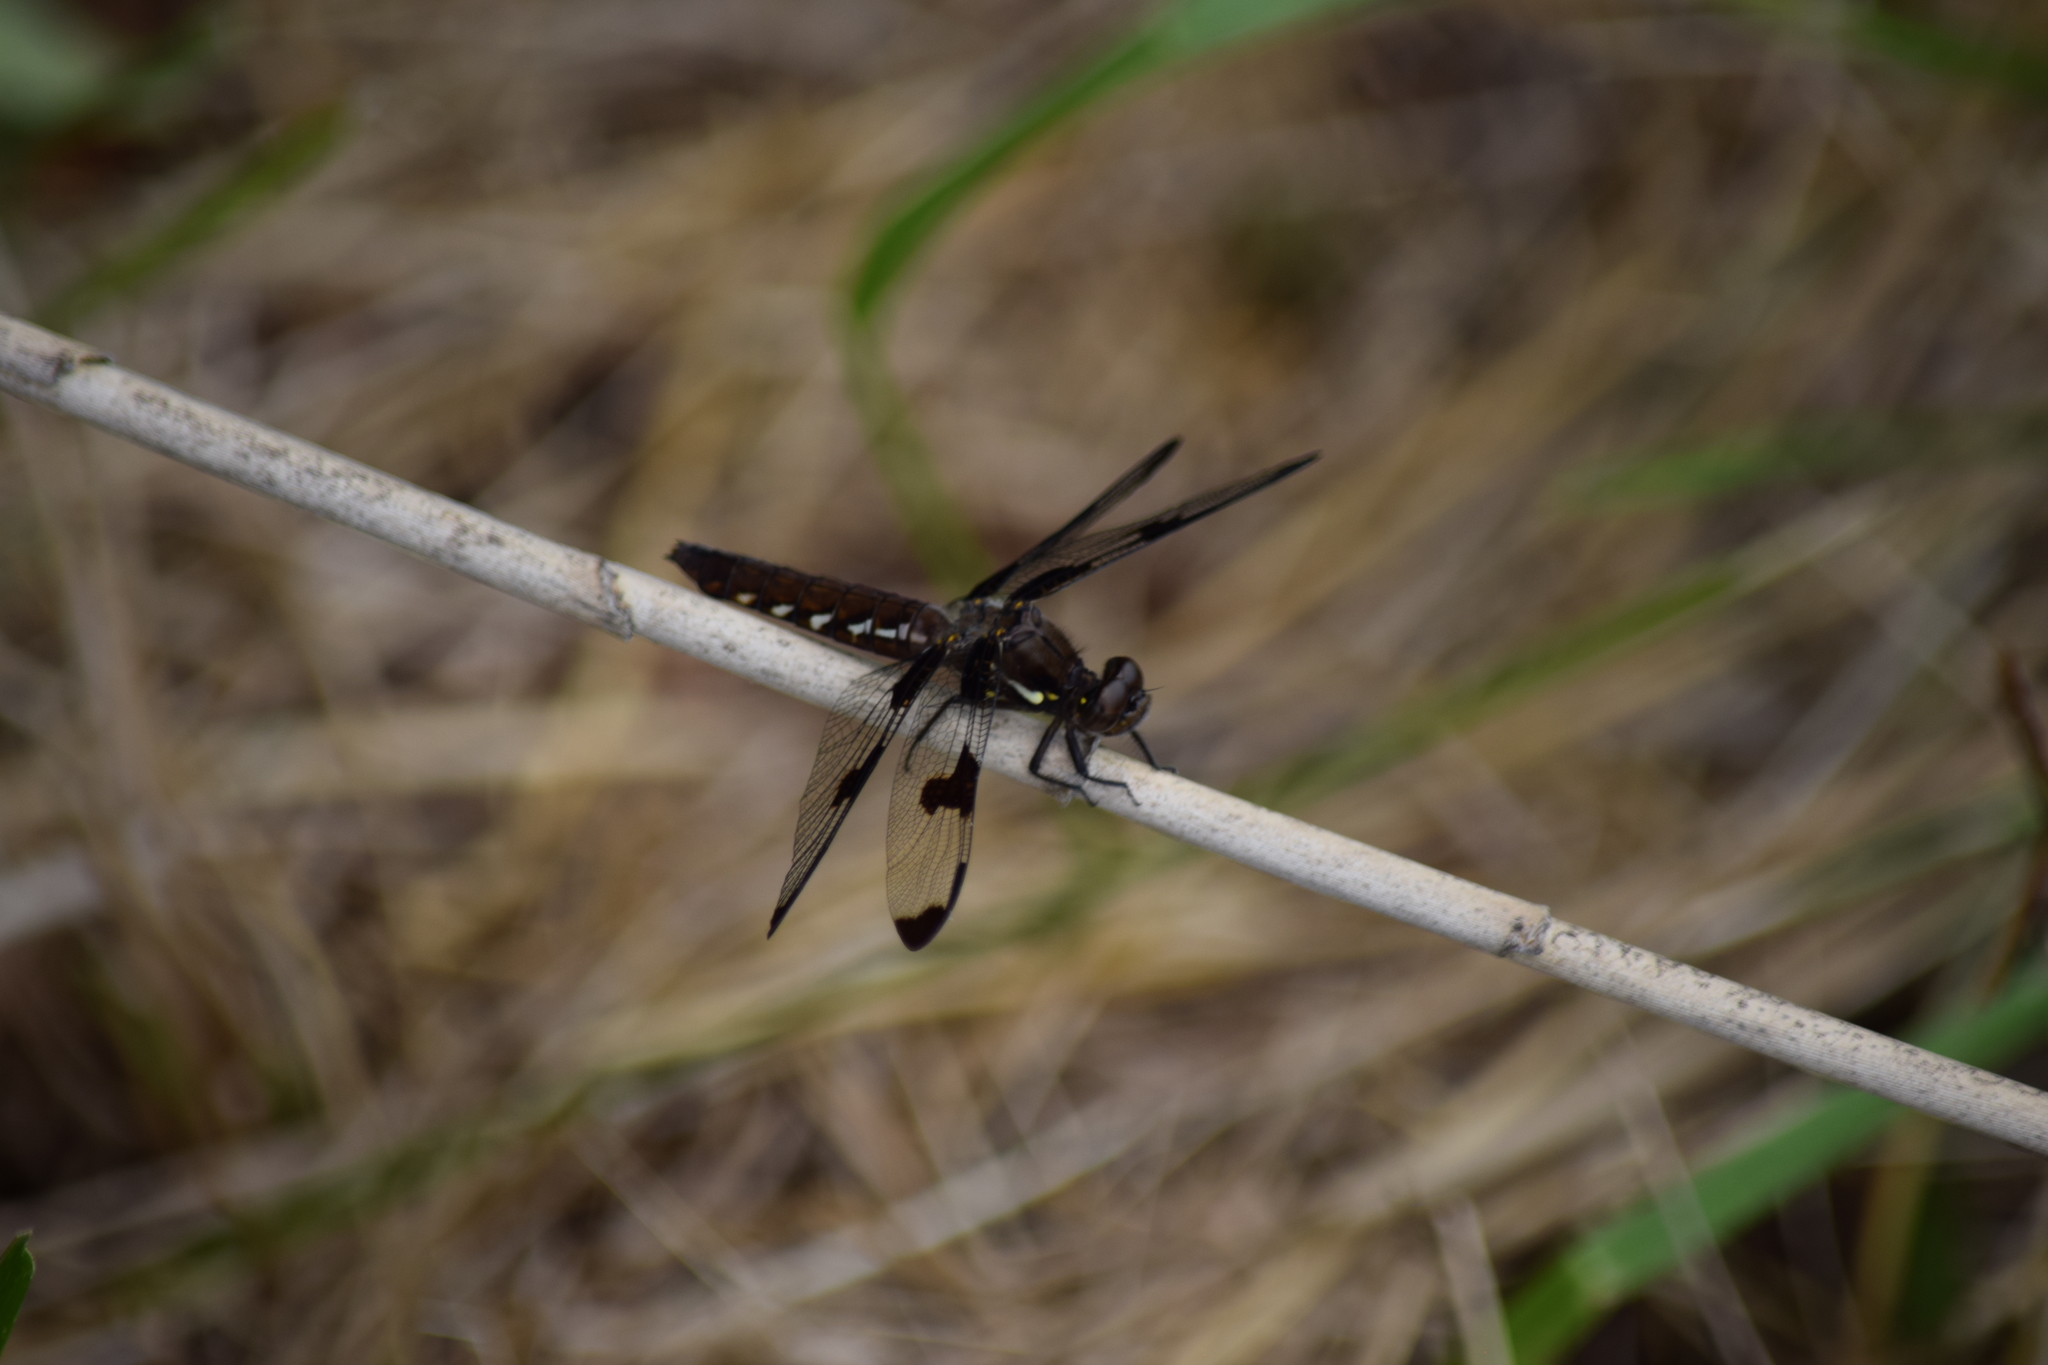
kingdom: Animalia
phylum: Arthropoda
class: Insecta
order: Odonata
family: Libellulidae
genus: Plathemis
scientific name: Plathemis lydia
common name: Common whitetail
